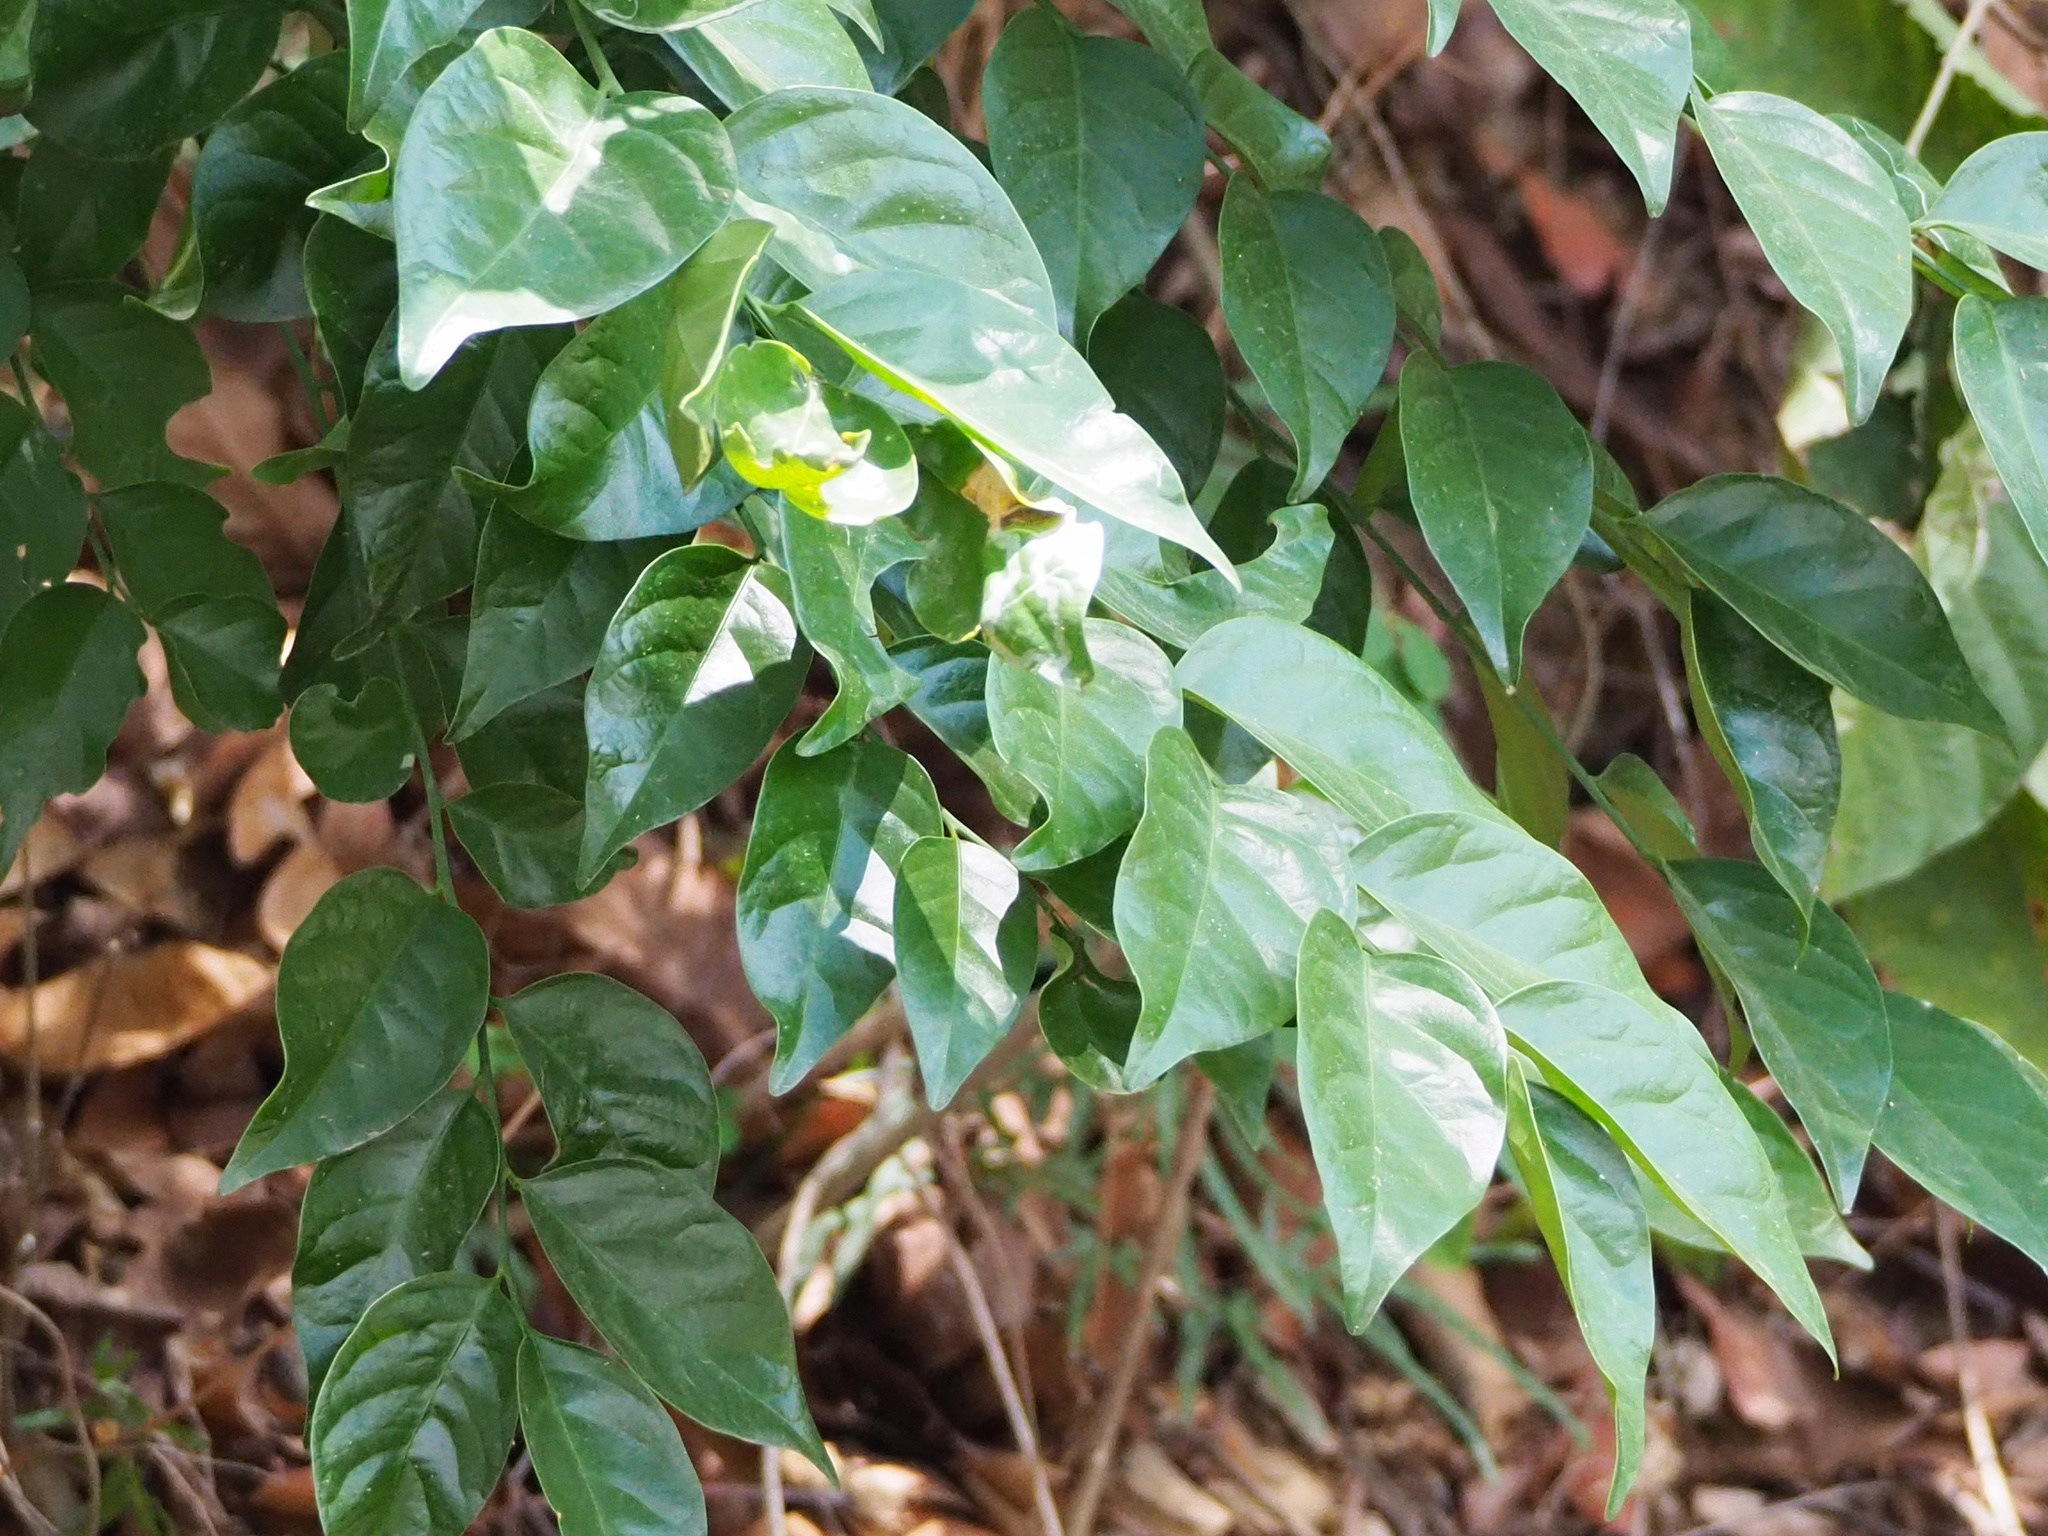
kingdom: Plantae
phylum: Tracheophyta
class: Magnoliopsida
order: Santalales
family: Opiliaceae
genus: Champereia
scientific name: Champereia manillana
